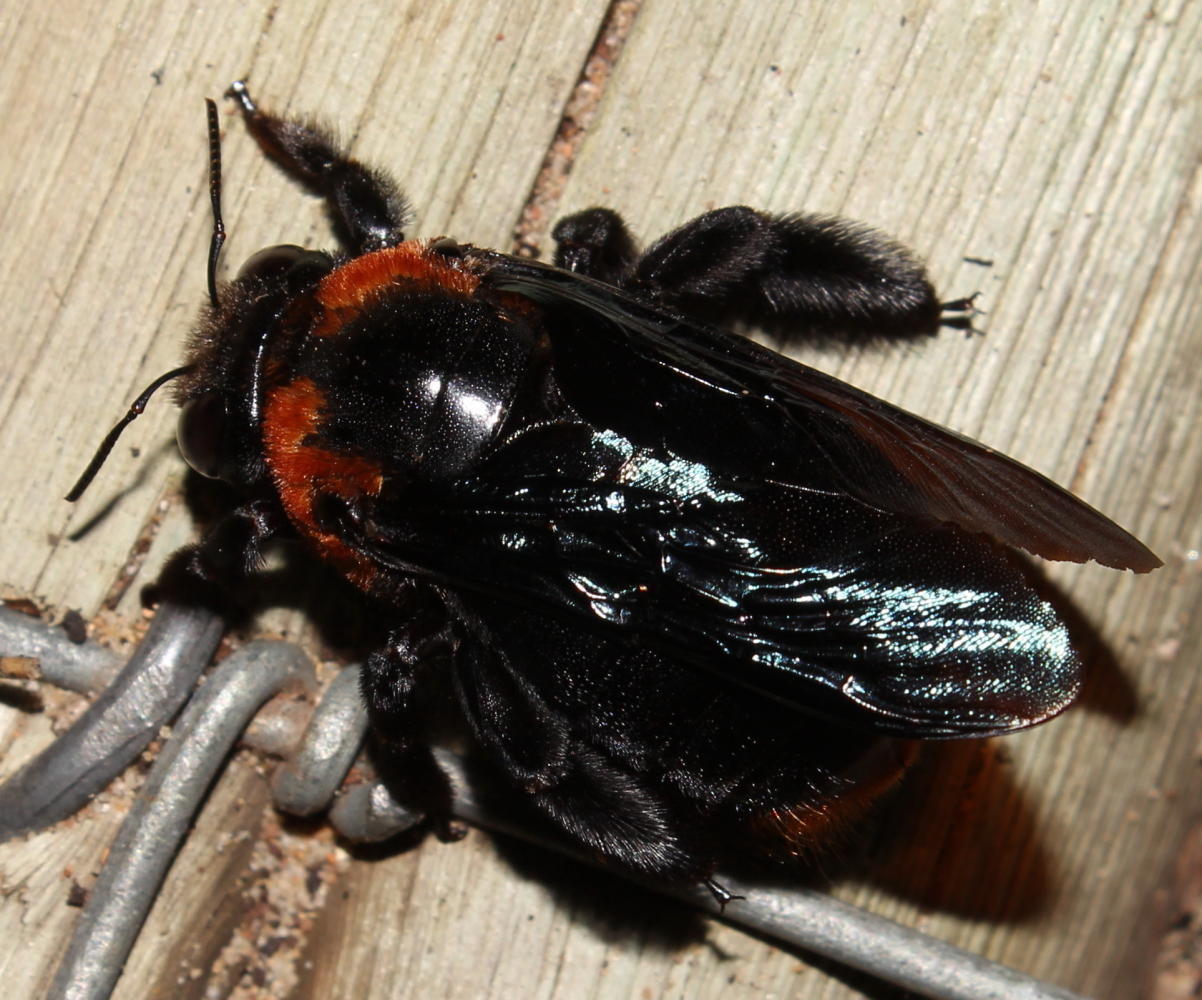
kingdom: Animalia
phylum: Arthropoda
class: Insecta
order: Hymenoptera
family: Apidae
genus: Xylocopa
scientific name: Xylocopa flavorufa
